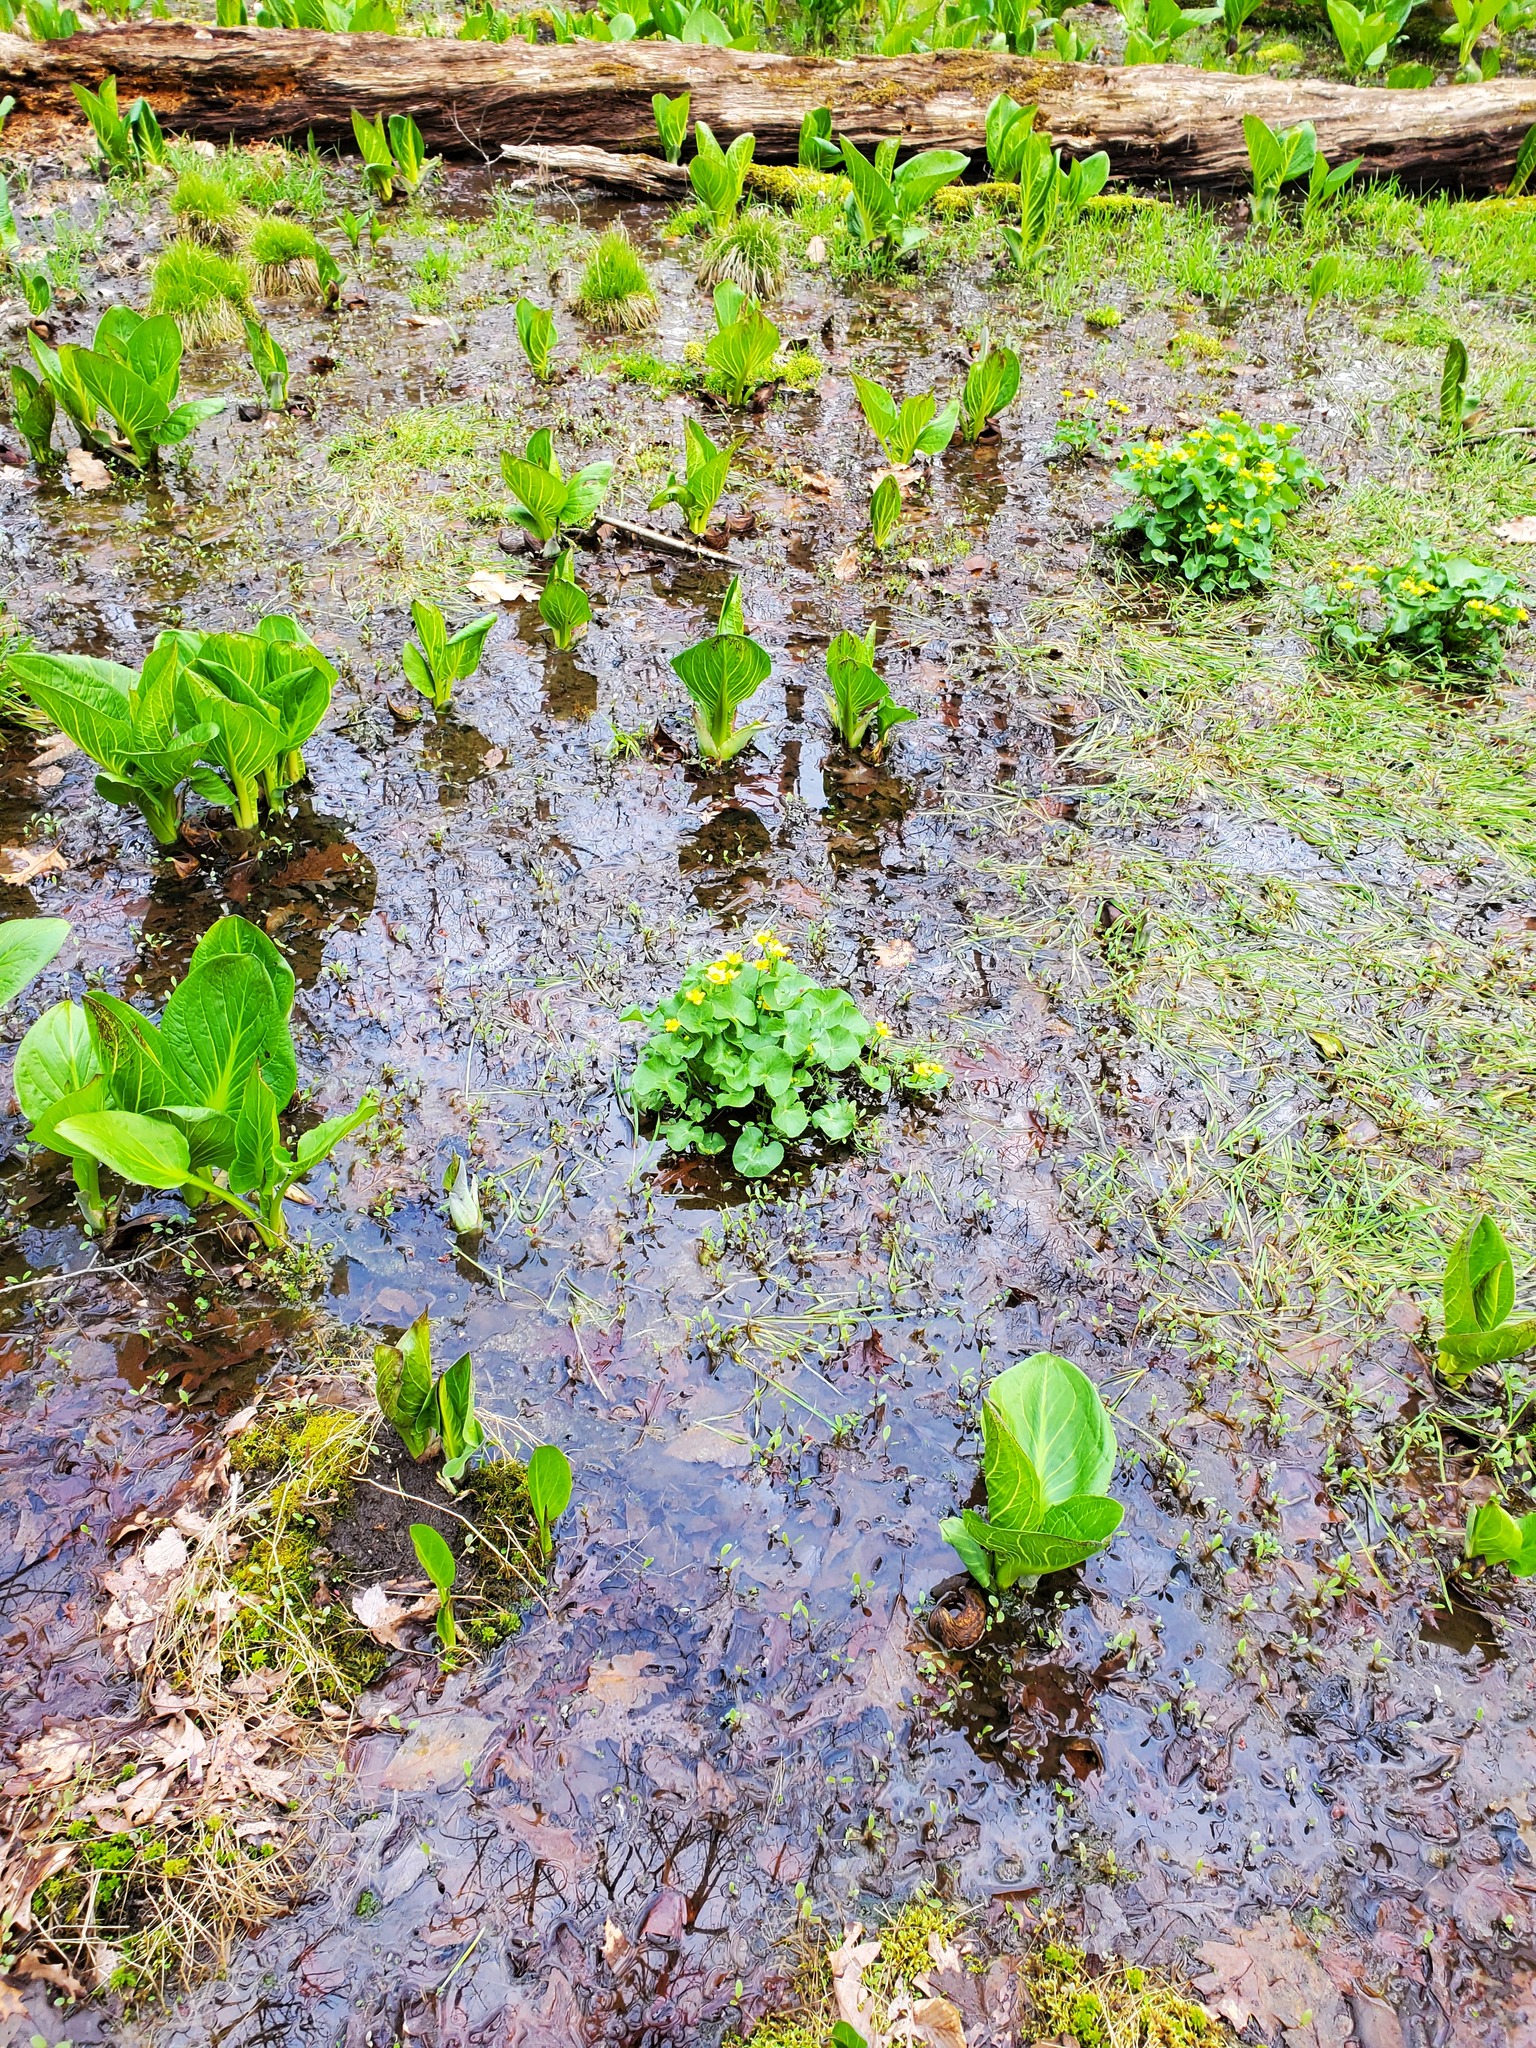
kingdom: Plantae
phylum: Tracheophyta
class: Magnoliopsida
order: Ranunculales
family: Ranunculaceae
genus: Caltha
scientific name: Caltha palustris
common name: Marsh marigold
